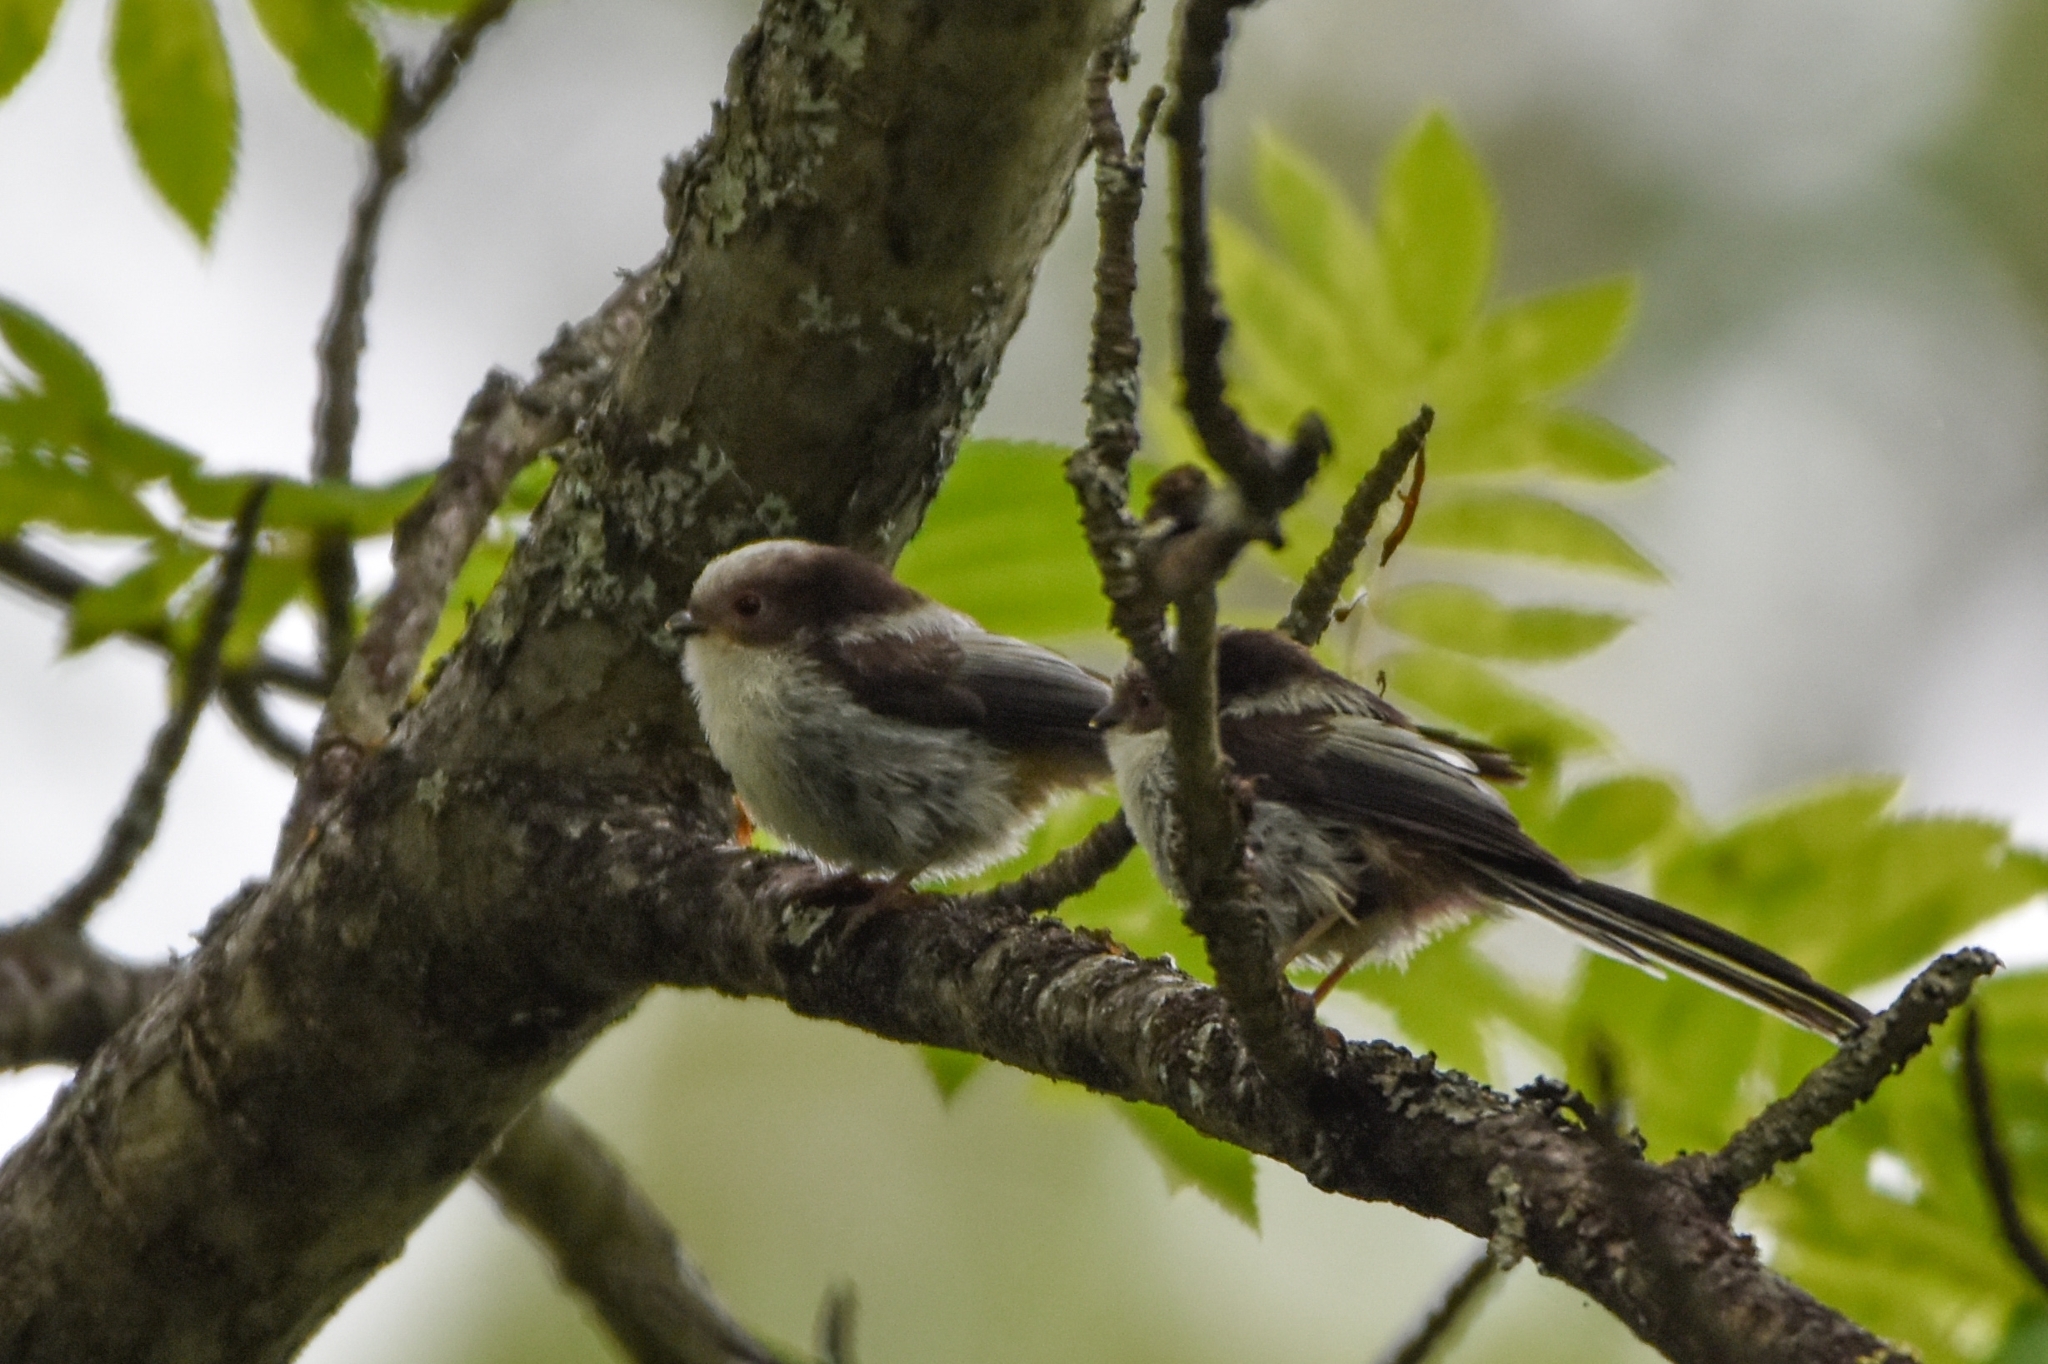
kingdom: Animalia
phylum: Chordata
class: Aves
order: Passeriformes
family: Aegithalidae
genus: Aegithalos
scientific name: Aegithalos caudatus
